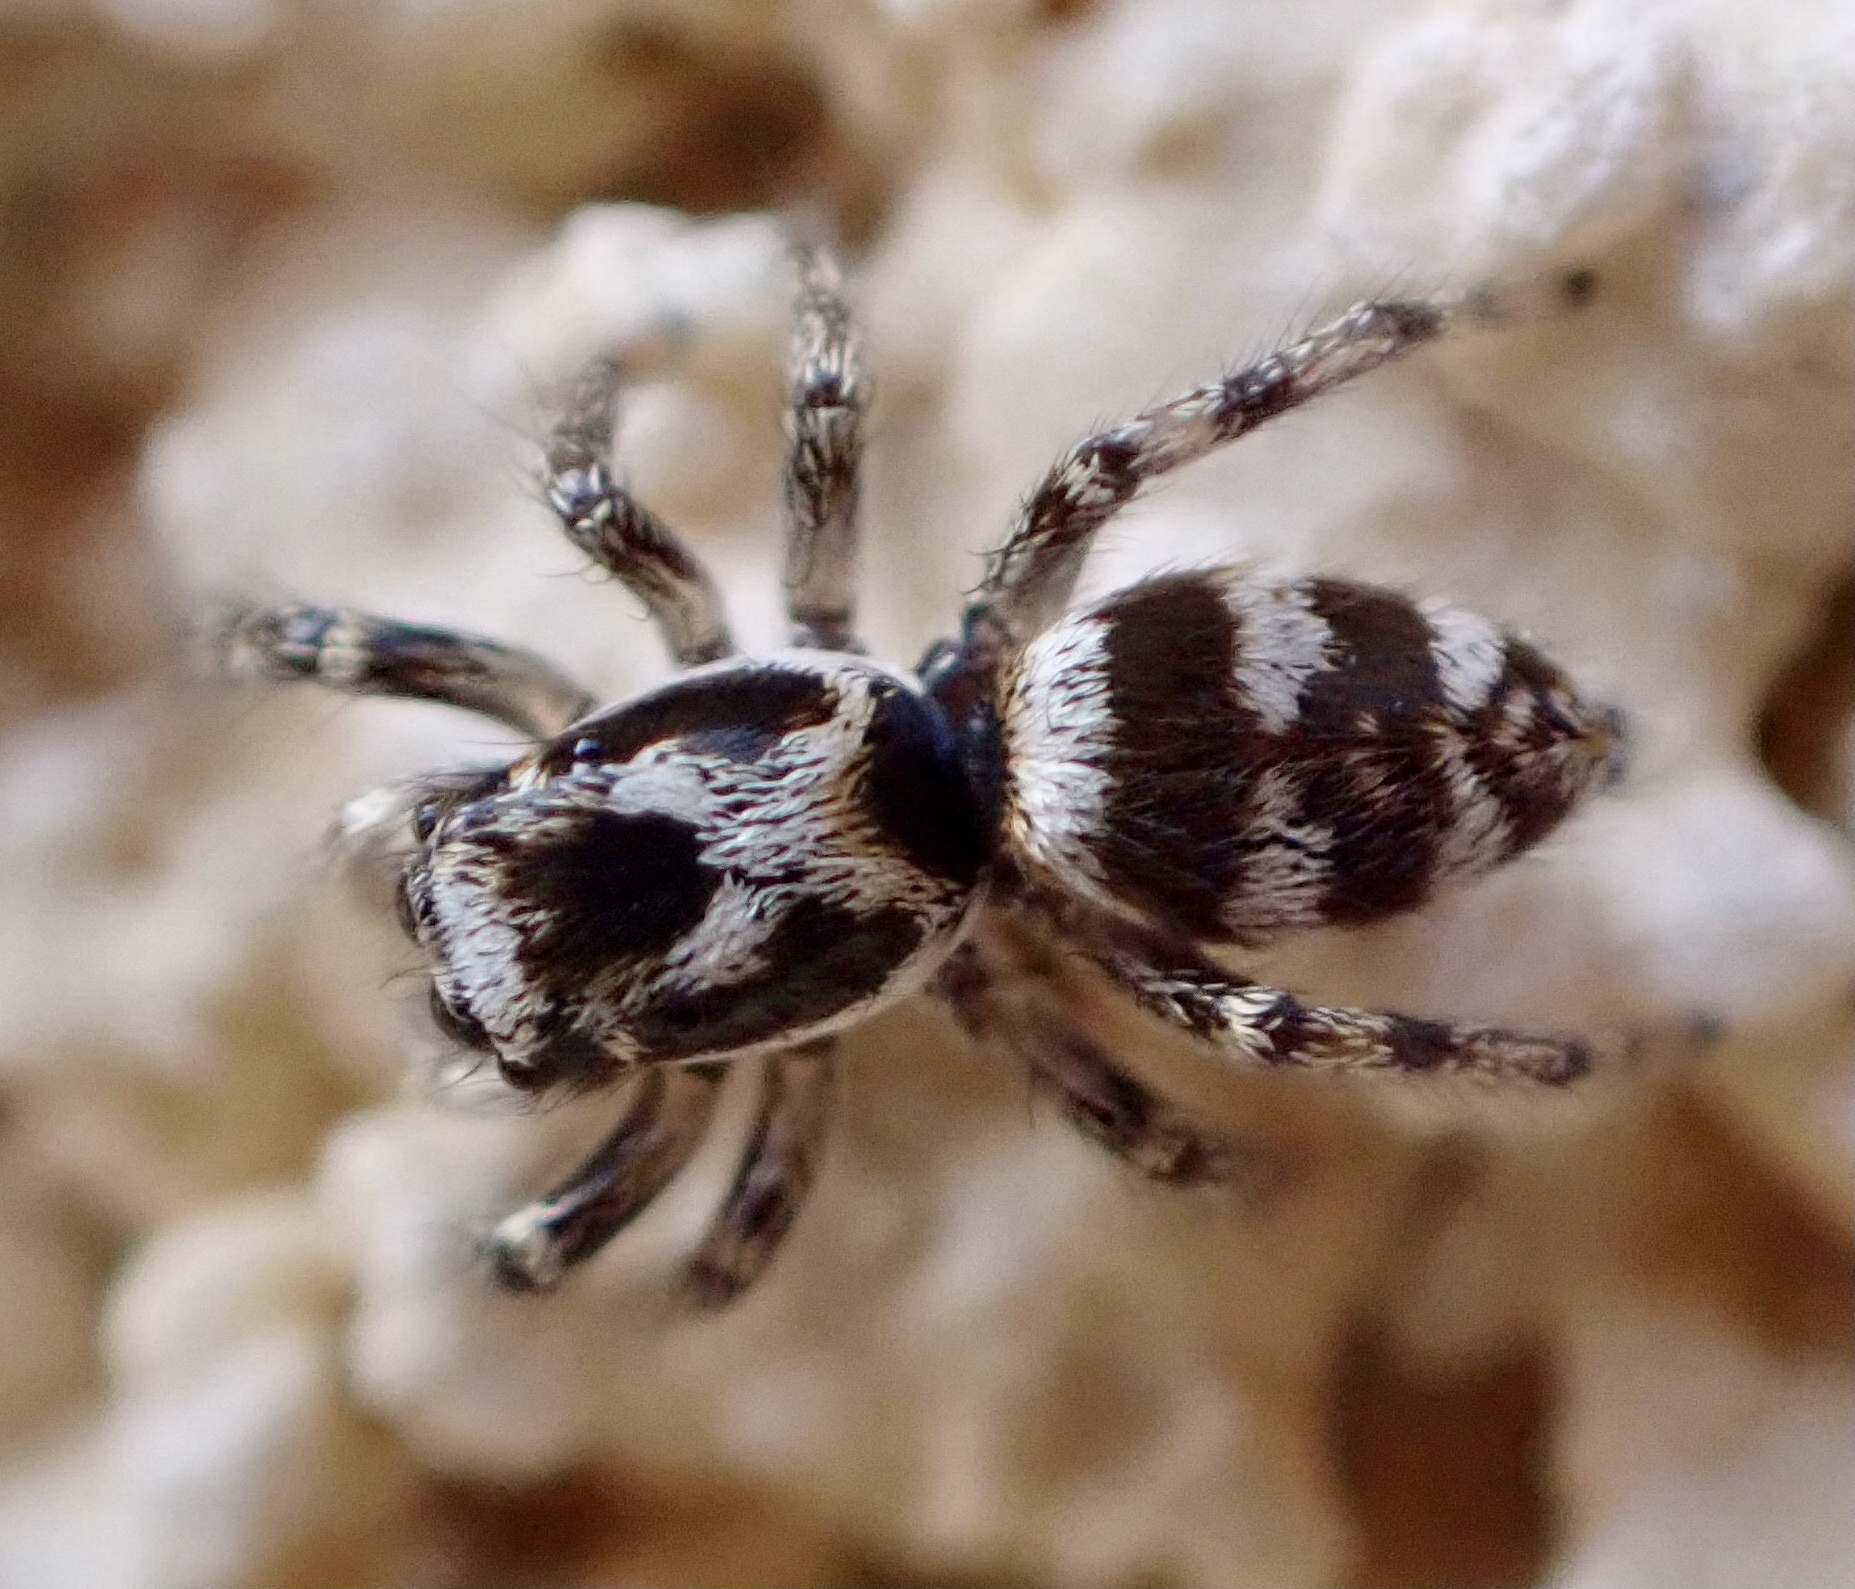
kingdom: Animalia
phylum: Arthropoda
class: Arachnida
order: Araneae
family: Salticidae
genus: Salticus
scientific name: Salticus scenicus
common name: Zebra jumper
